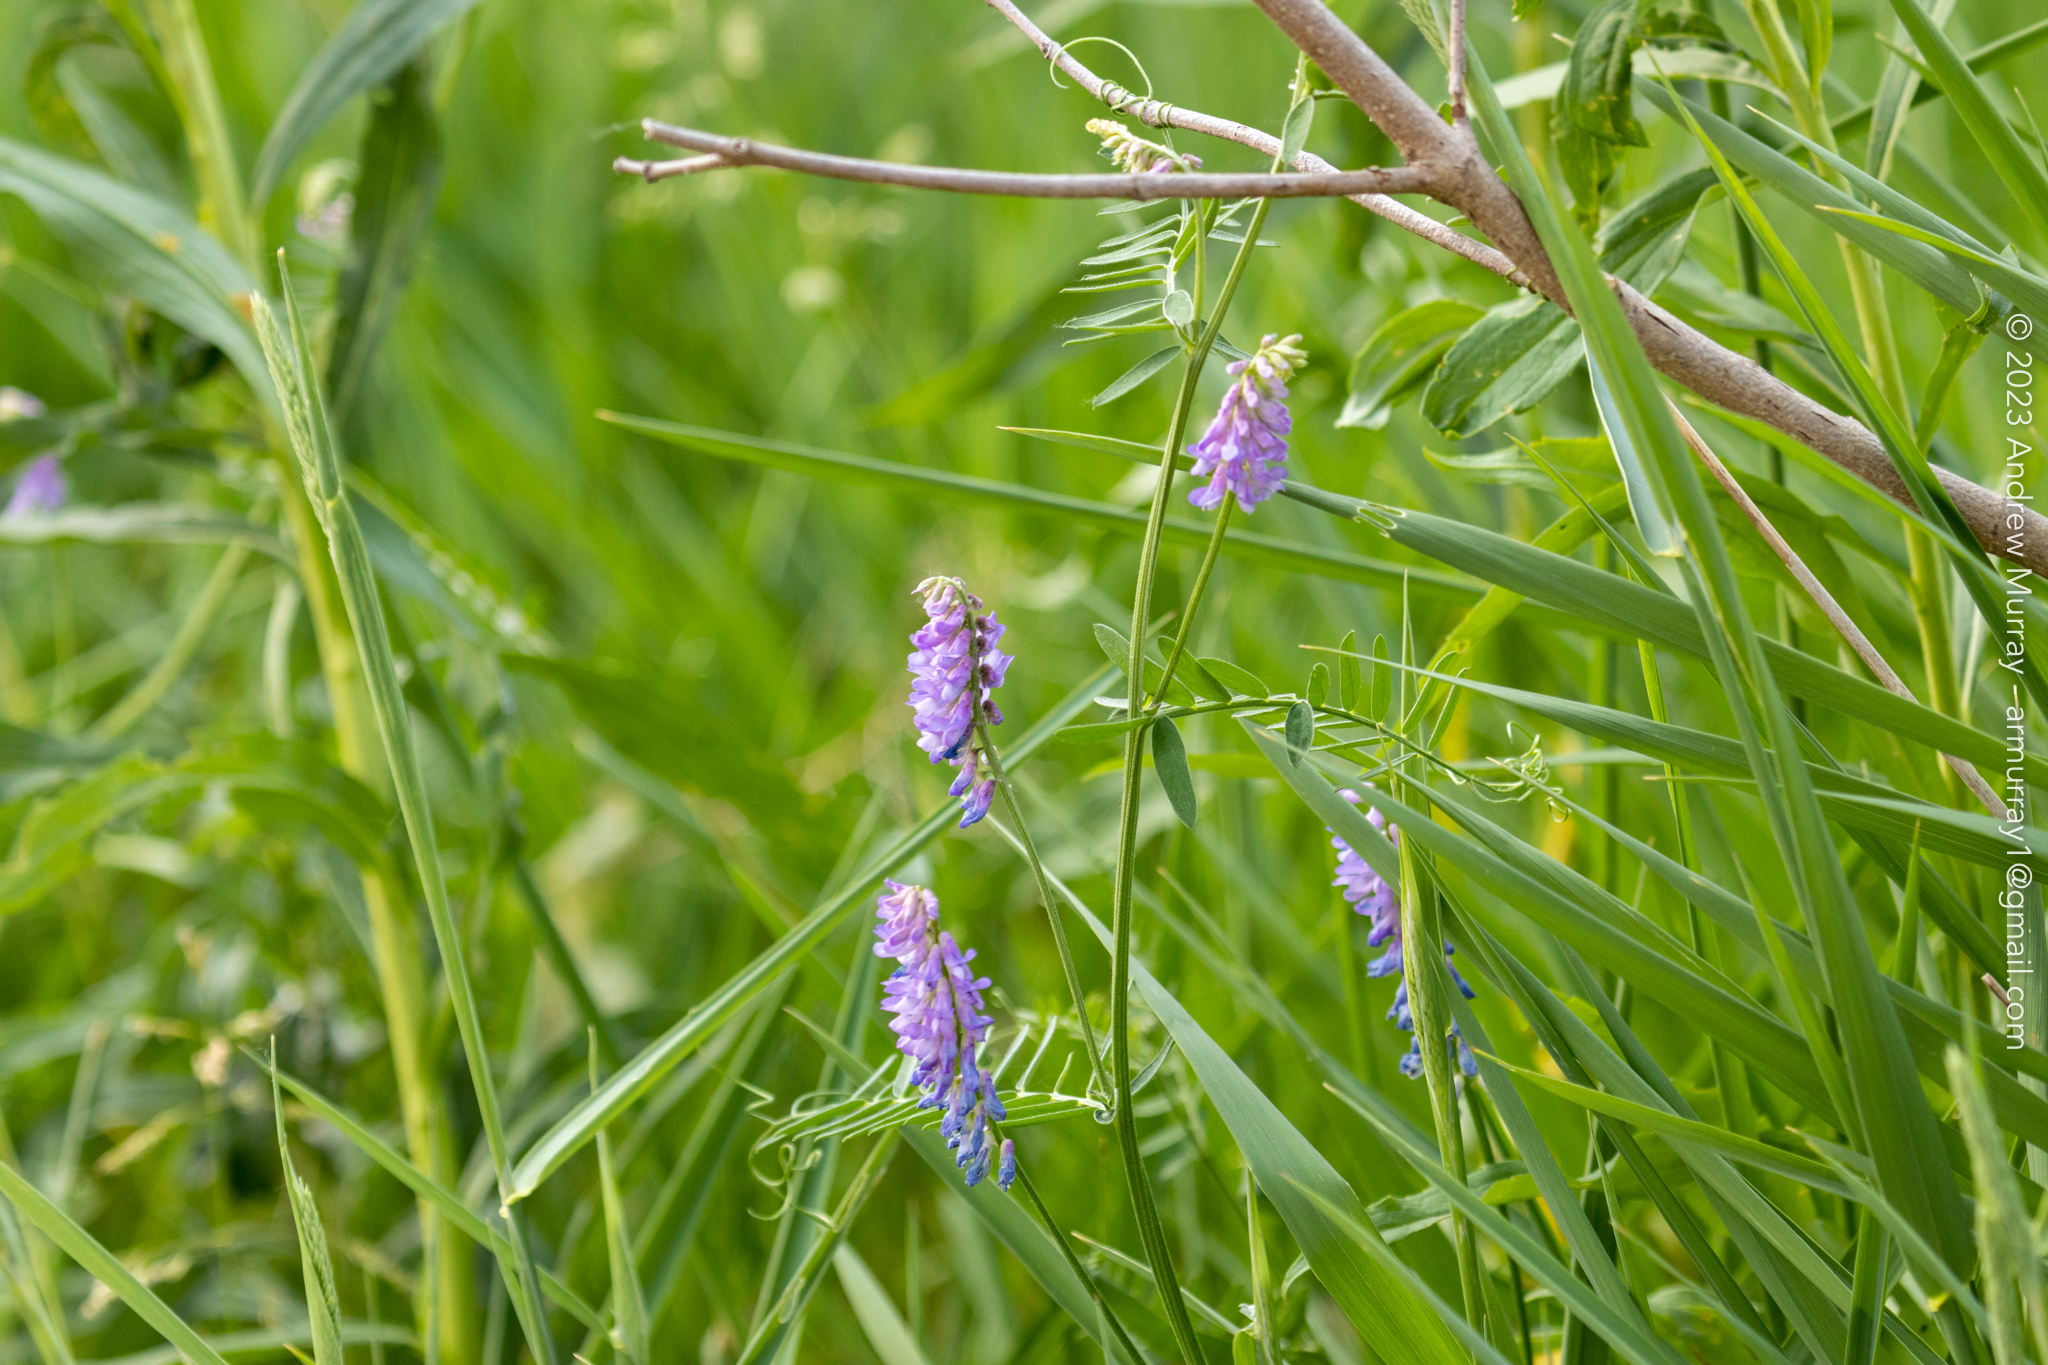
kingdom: Plantae
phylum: Tracheophyta
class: Magnoliopsida
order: Fabales
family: Fabaceae
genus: Vicia
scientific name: Vicia cracca
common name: Bird vetch
